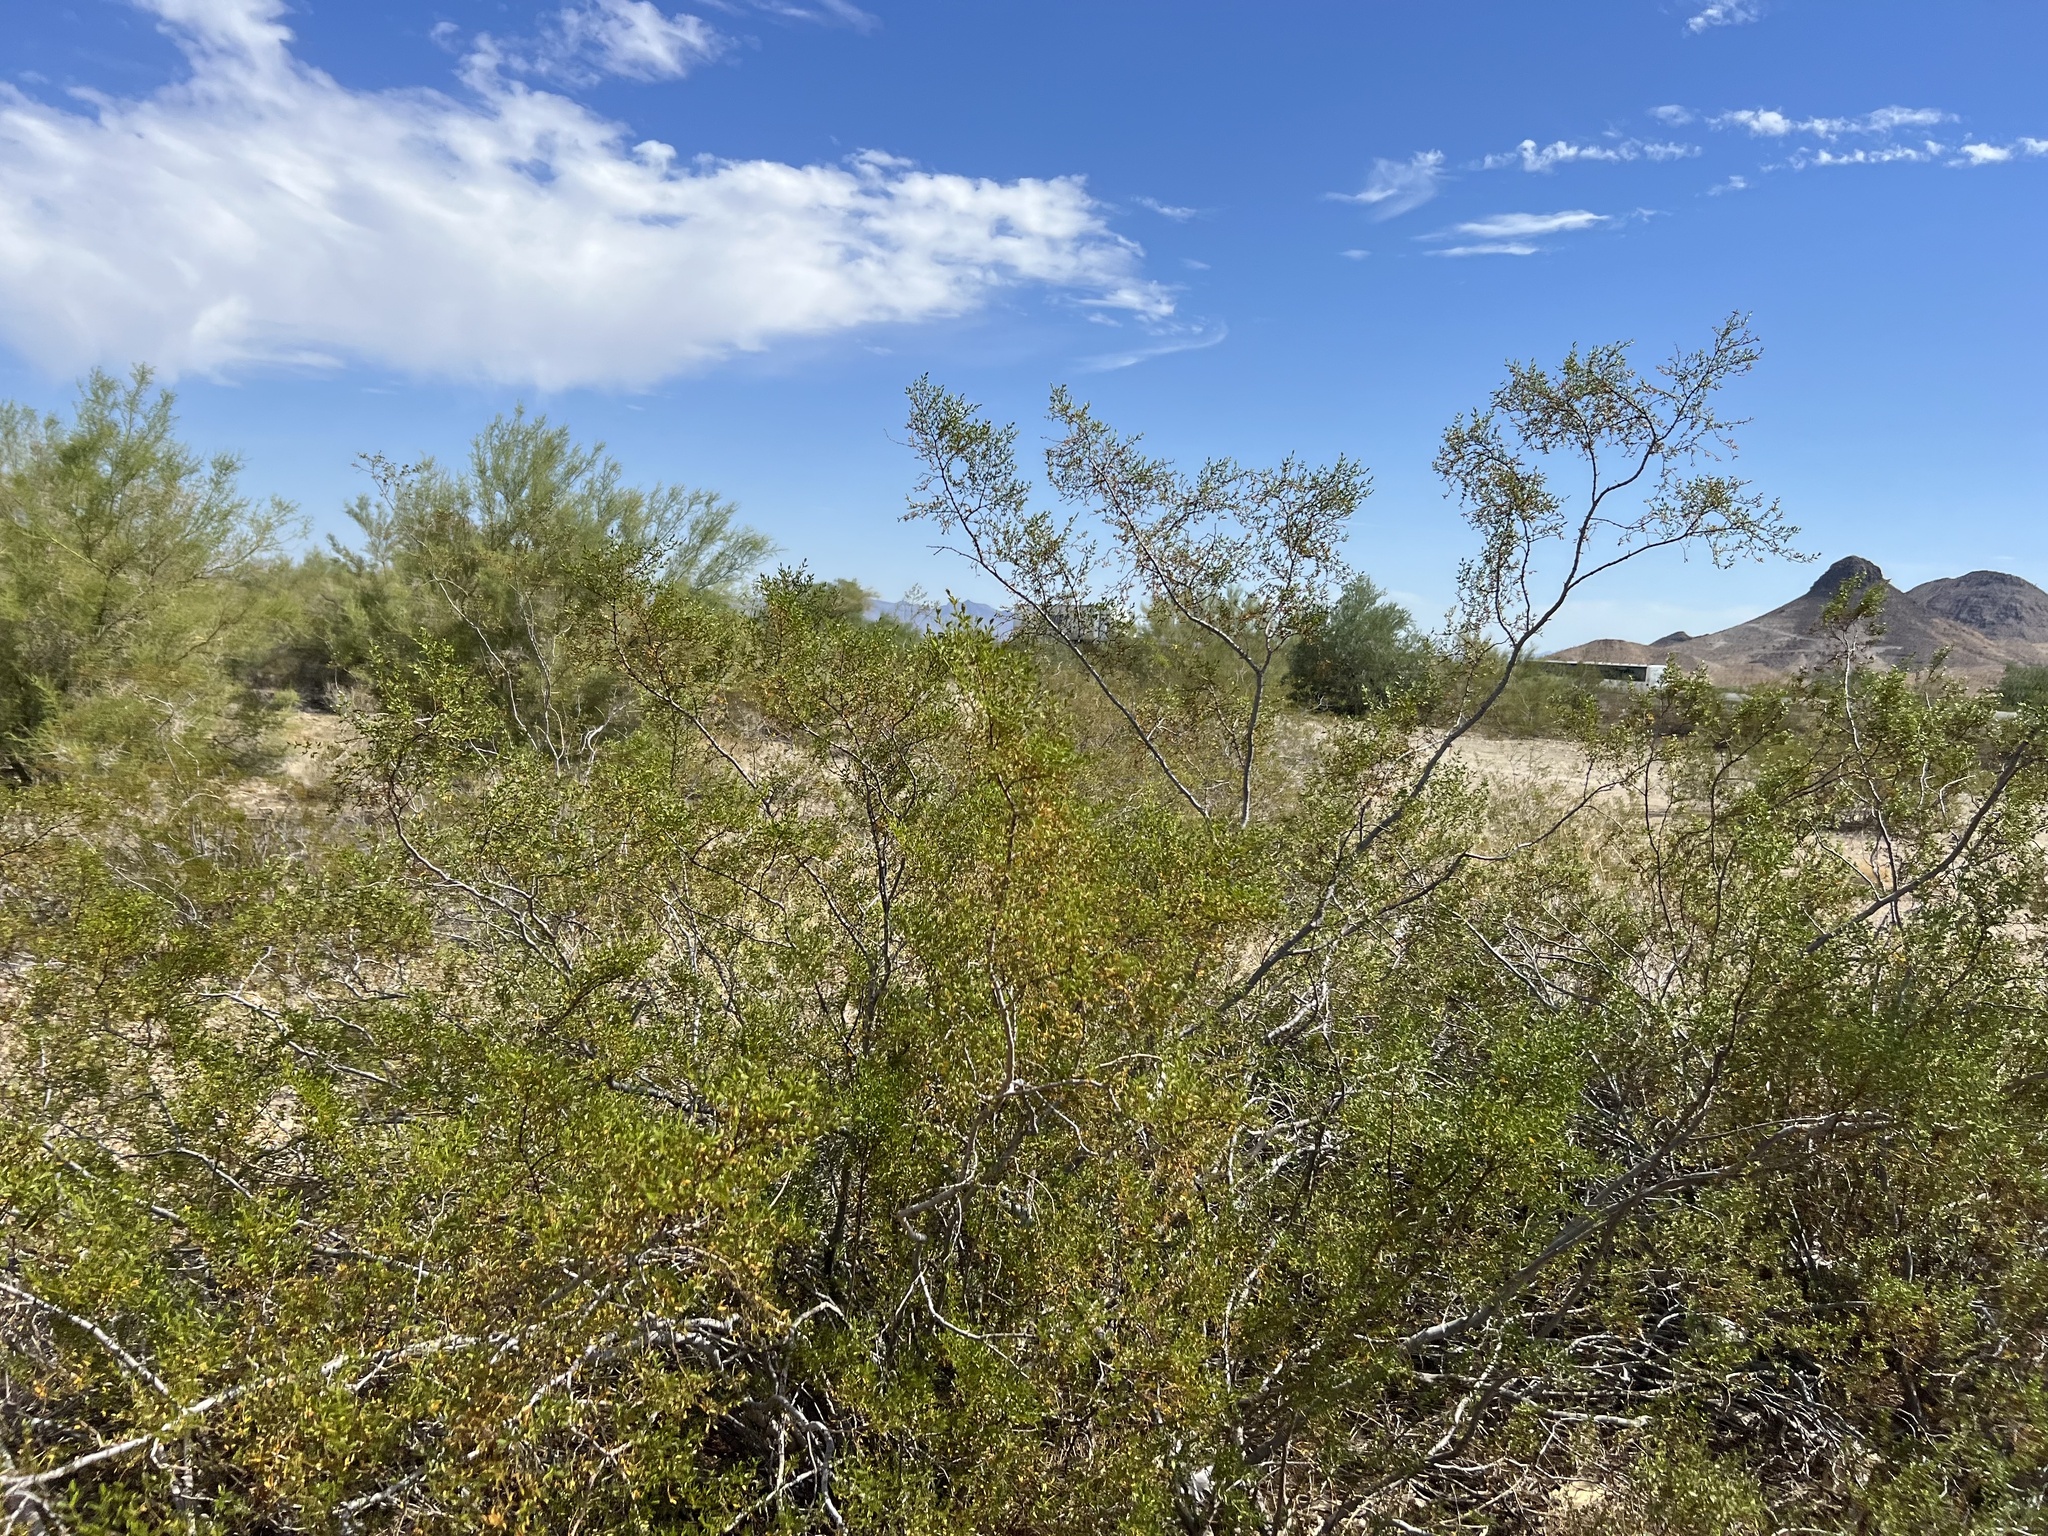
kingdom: Plantae
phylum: Tracheophyta
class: Magnoliopsida
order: Zygophyllales
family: Zygophyllaceae
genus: Larrea
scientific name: Larrea tridentata
